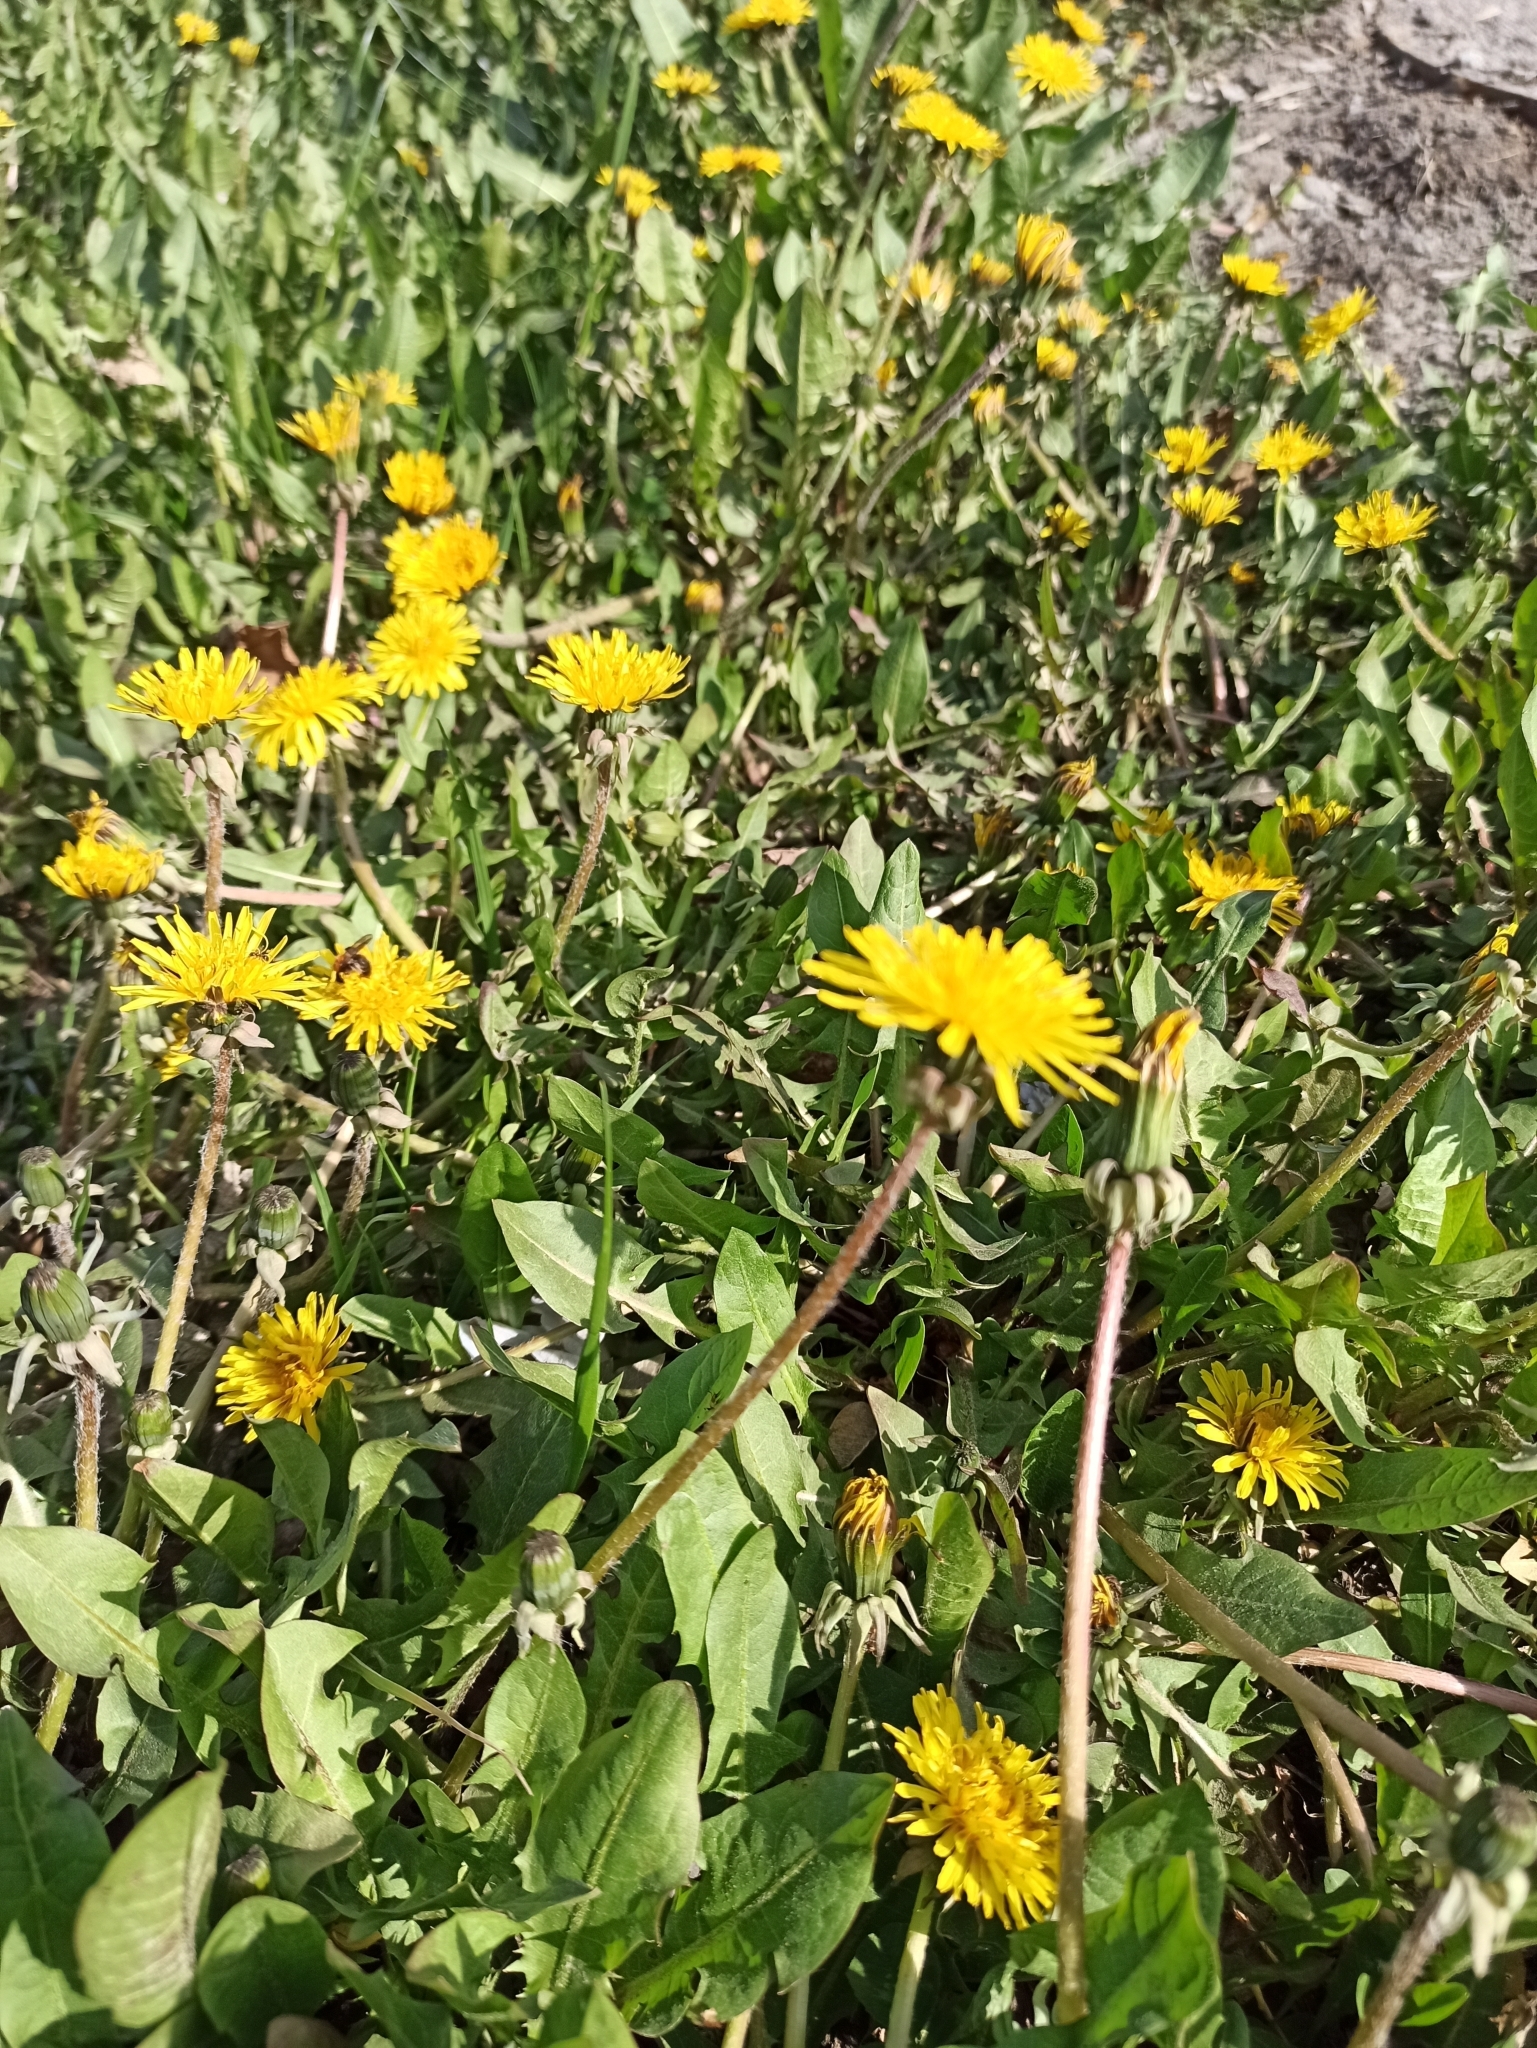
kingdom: Plantae
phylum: Tracheophyta
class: Magnoliopsida
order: Asterales
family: Asteraceae
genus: Taraxacum
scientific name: Taraxacum officinale
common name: Common dandelion
